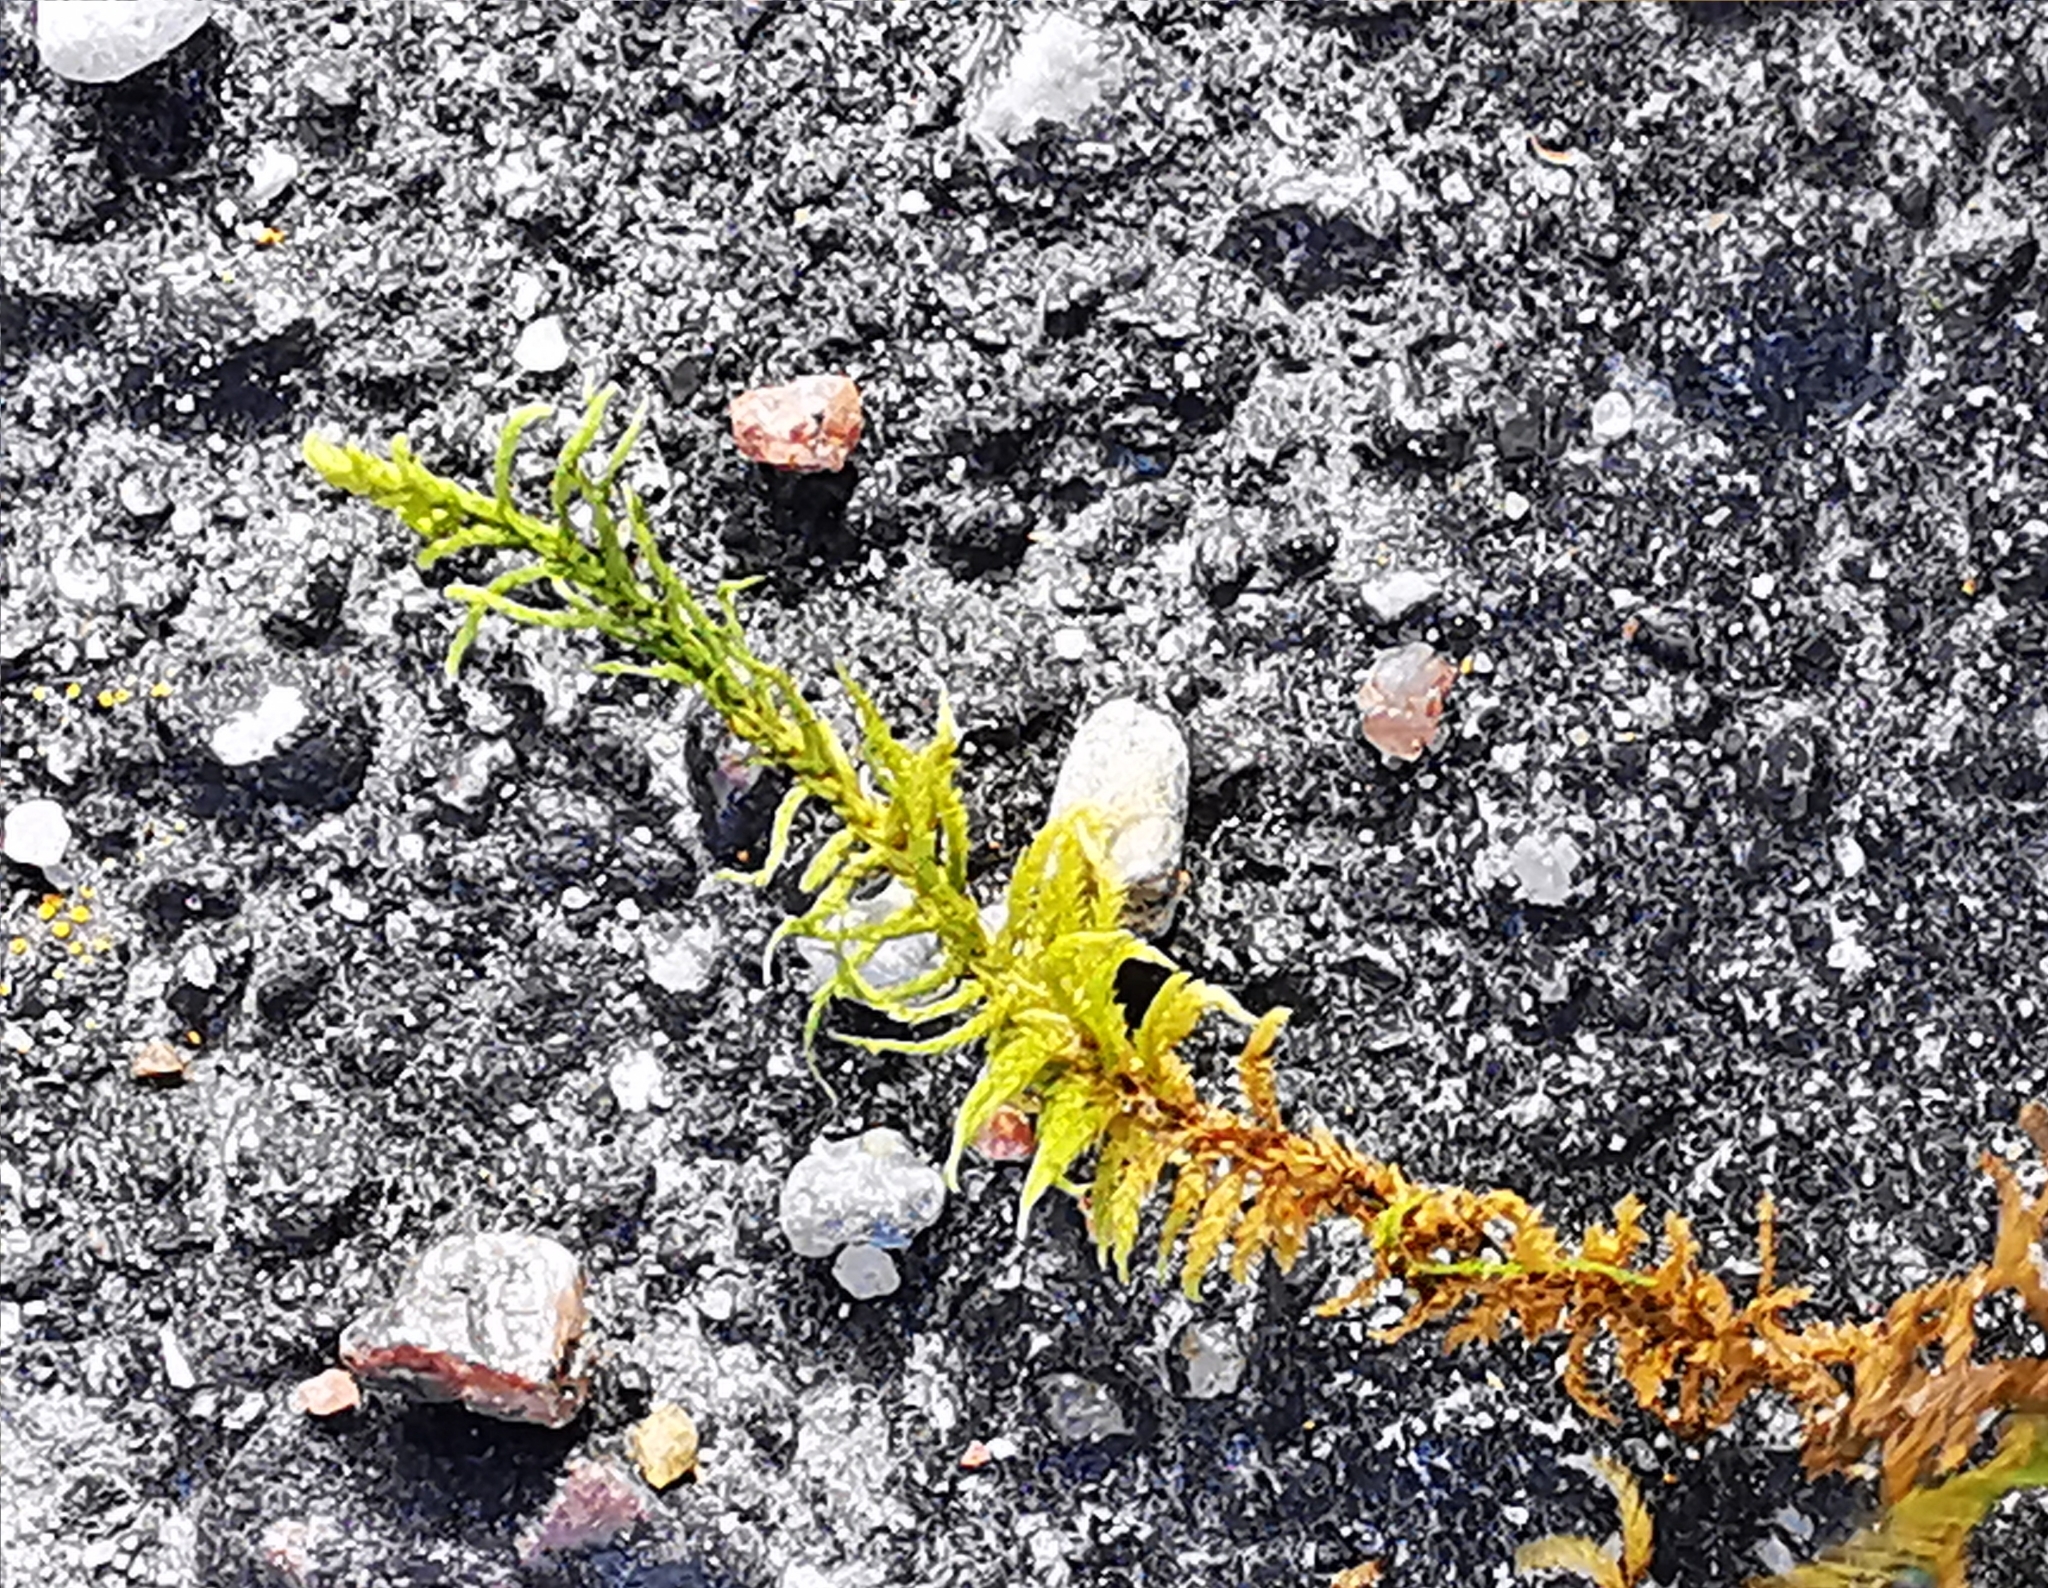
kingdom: Plantae
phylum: Bryophyta
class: Bryopsida
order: Hypnales
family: Hylocomiaceae
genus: Pleurozium
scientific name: Pleurozium schreberi
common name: Red-stemmed feather moss
